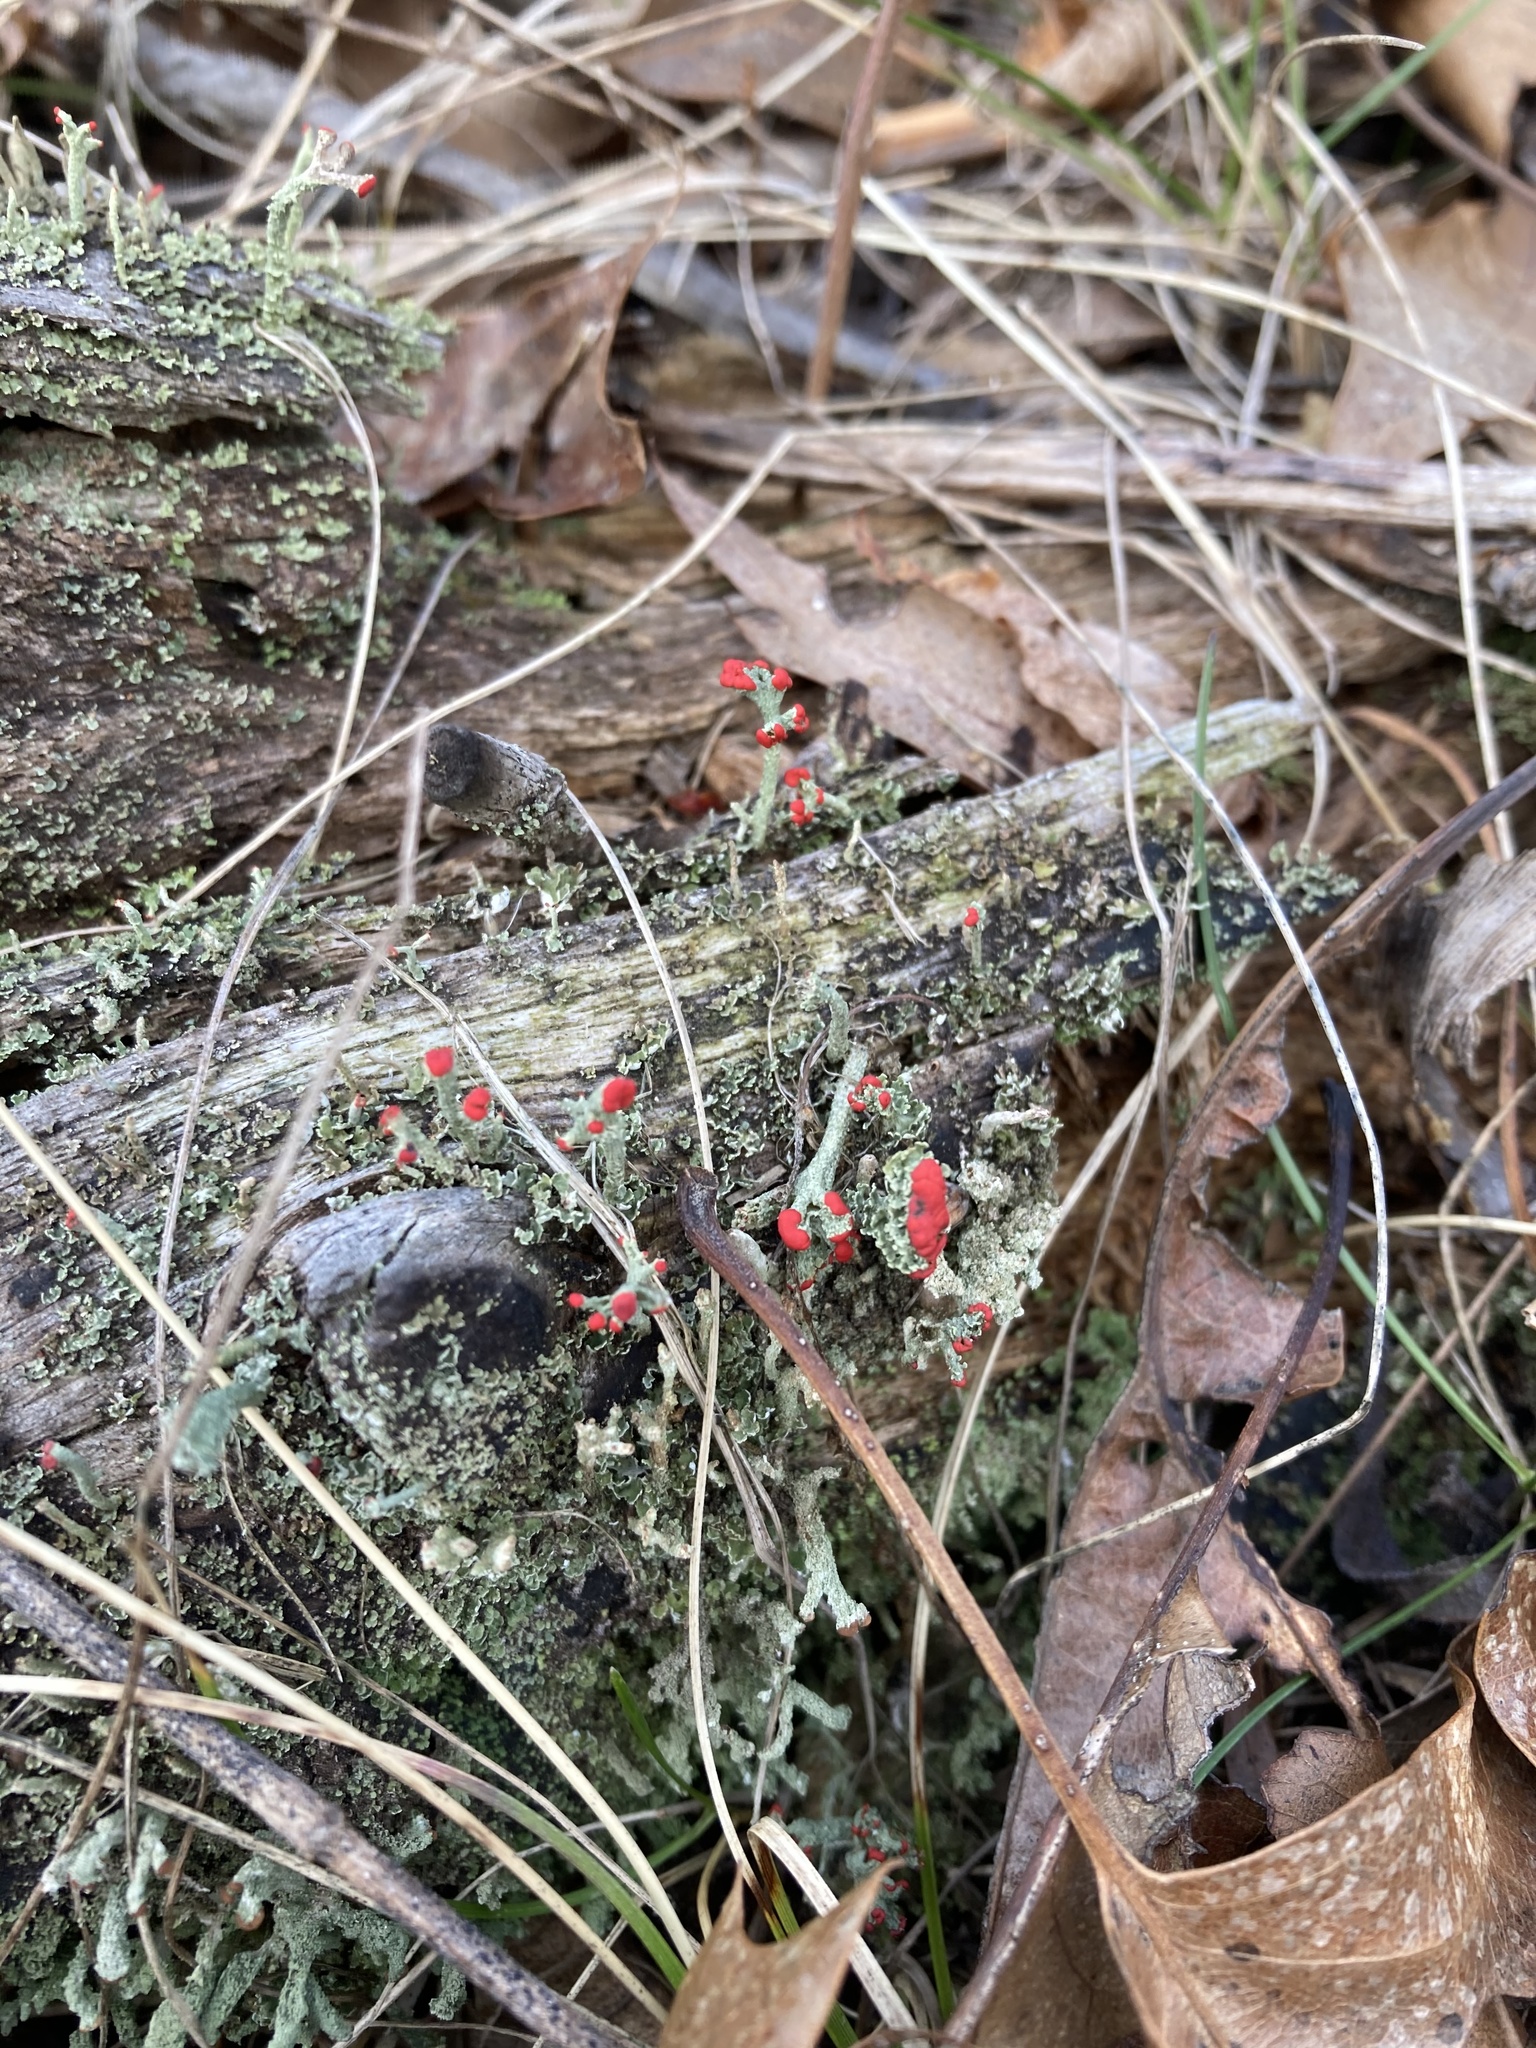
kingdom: Fungi
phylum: Ascomycota
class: Lecanoromycetes
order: Lecanorales
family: Cladoniaceae
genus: Cladonia
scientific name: Cladonia cristatella
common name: British soldier lichen
